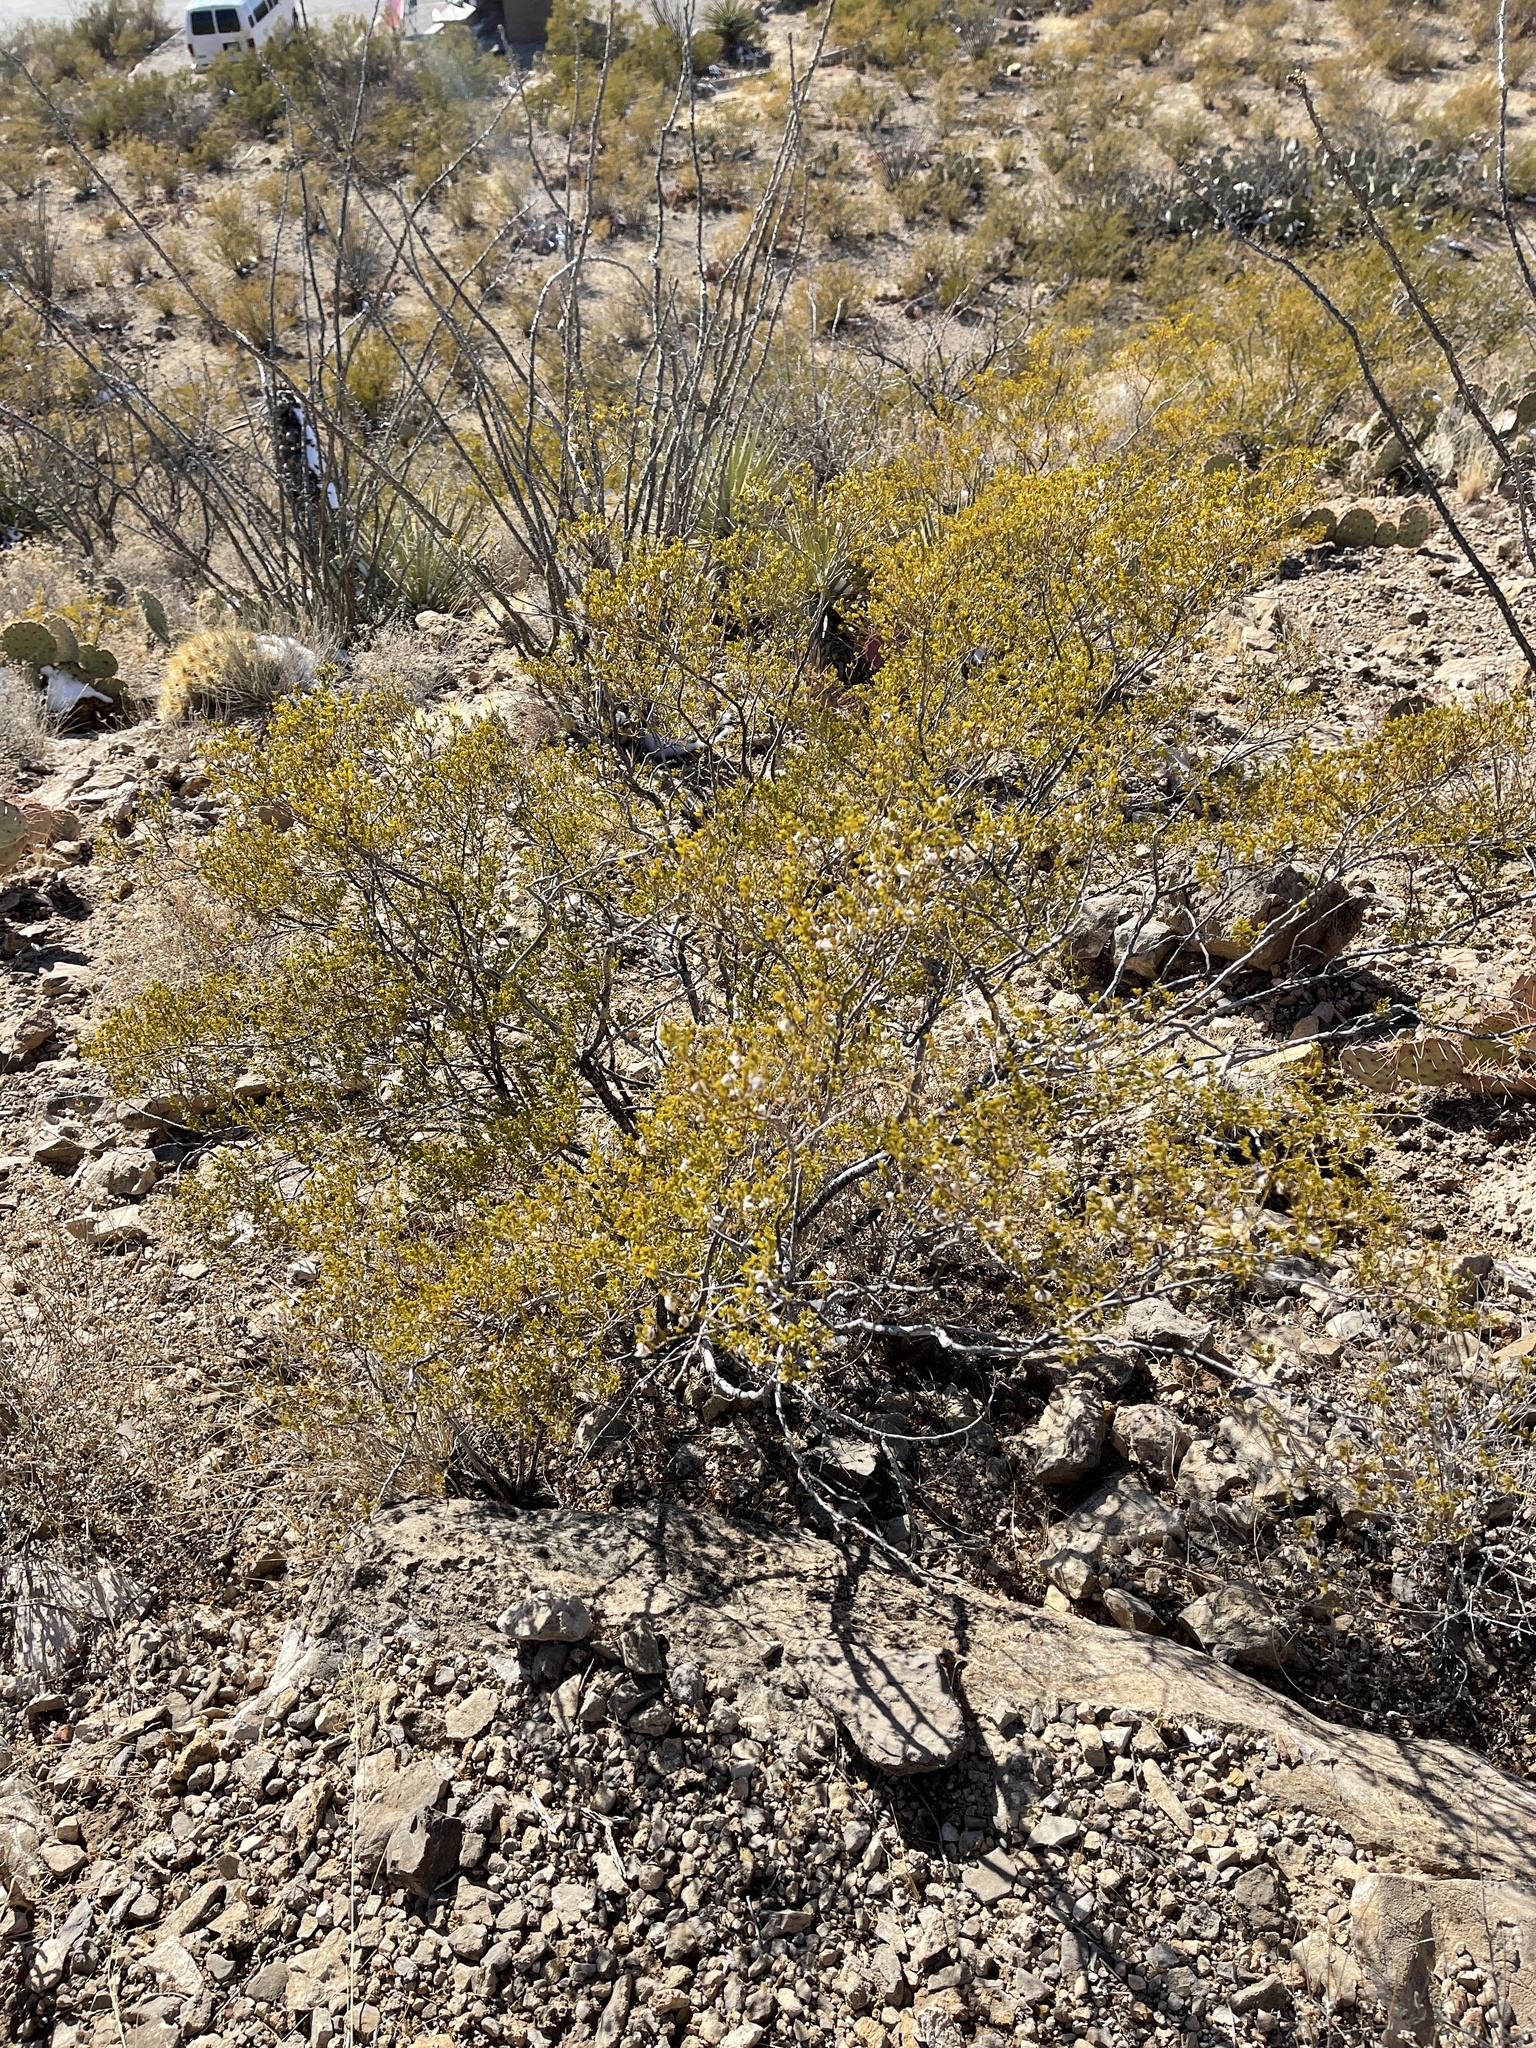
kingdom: Plantae
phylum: Tracheophyta
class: Magnoliopsida
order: Zygophyllales
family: Zygophyllaceae
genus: Larrea
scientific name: Larrea tridentata
